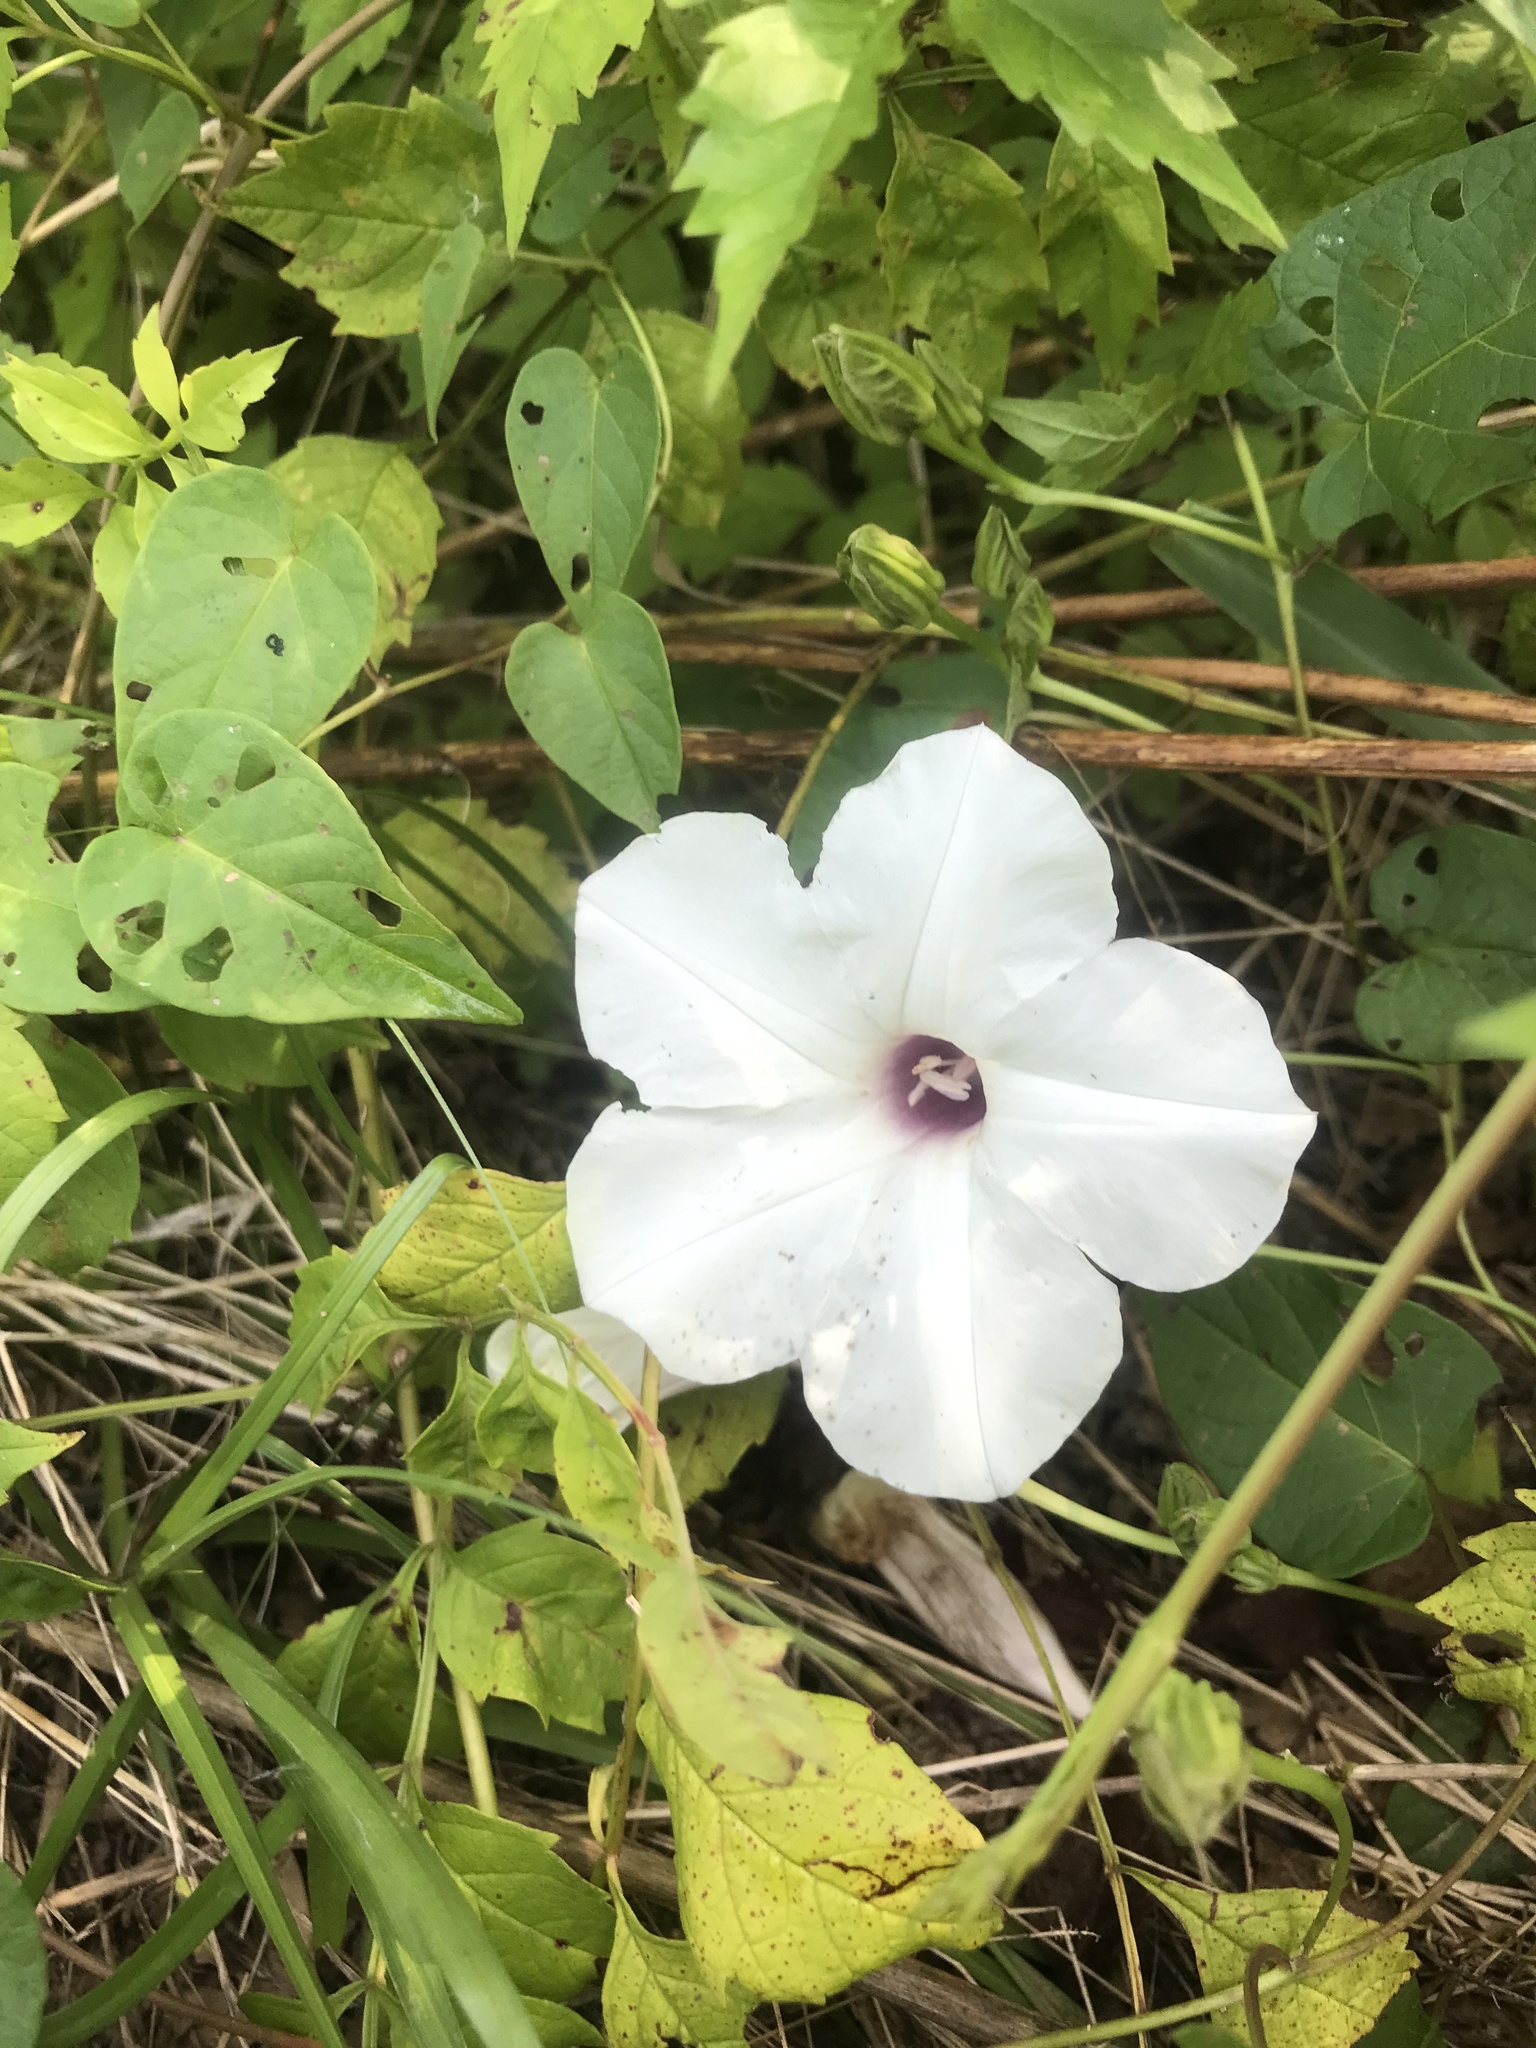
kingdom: Plantae
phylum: Tracheophyta
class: Magnoliopsida
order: Solanales
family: Convolvulaceae
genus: Ipomoea
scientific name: Ipomoea pandurata
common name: Man-of-the-earth
